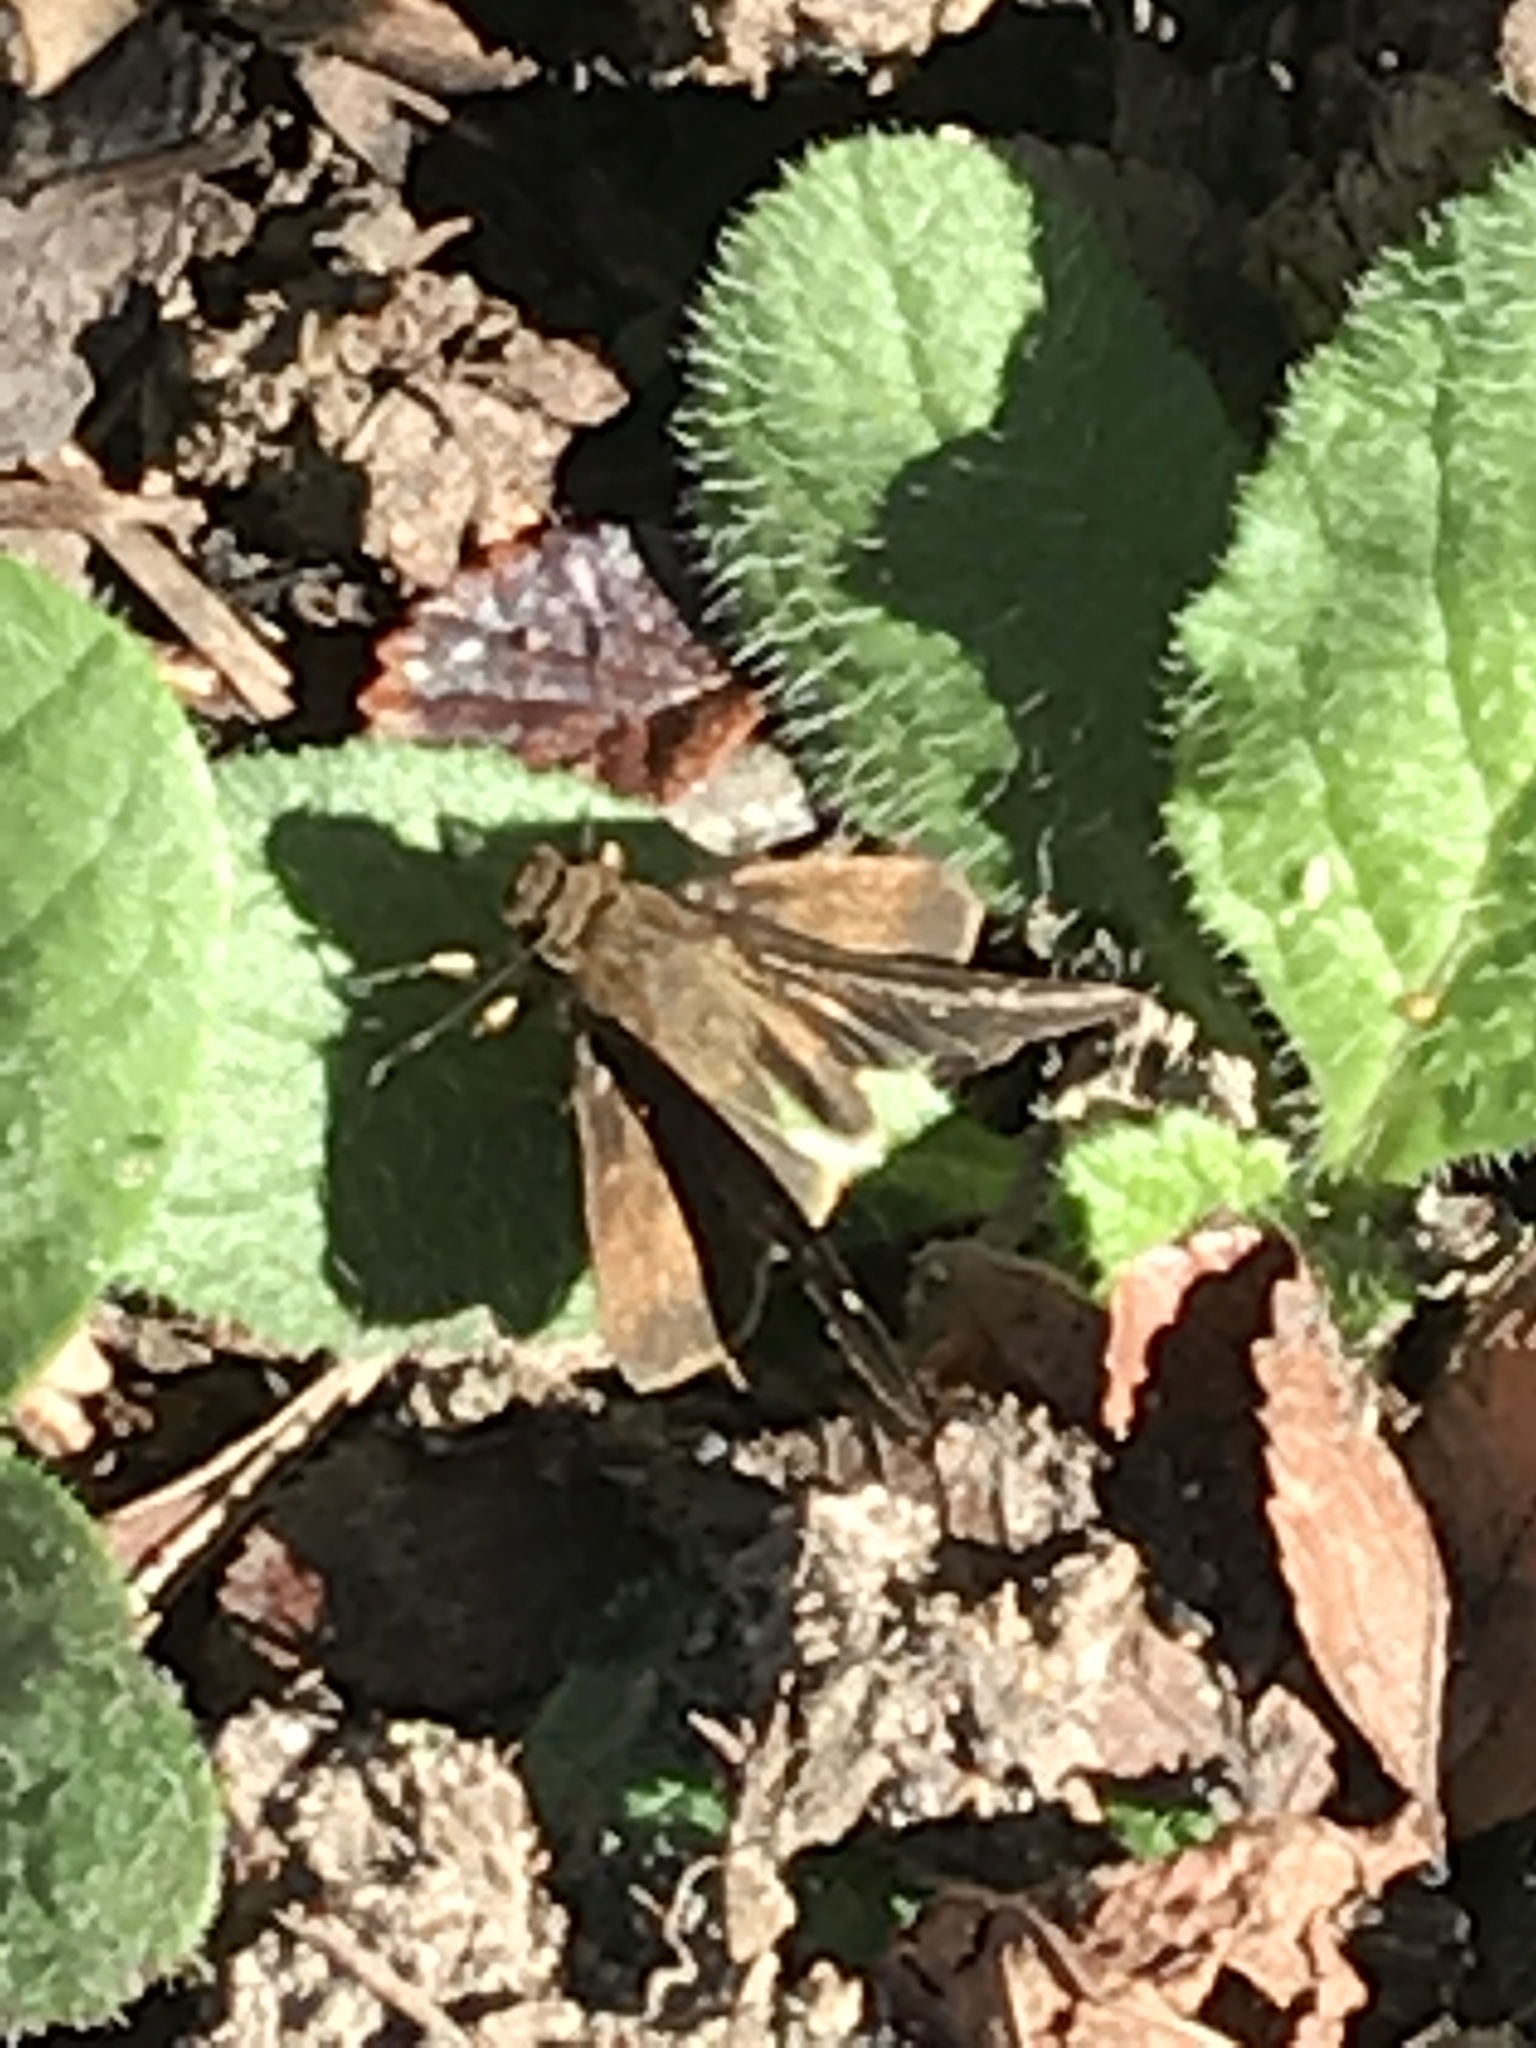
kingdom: Animalia
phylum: Arthropoda
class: Insecta
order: Lepidoptera
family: Hesperiidae
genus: Lerema
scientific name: Lerema accius
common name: Clouded skipper
